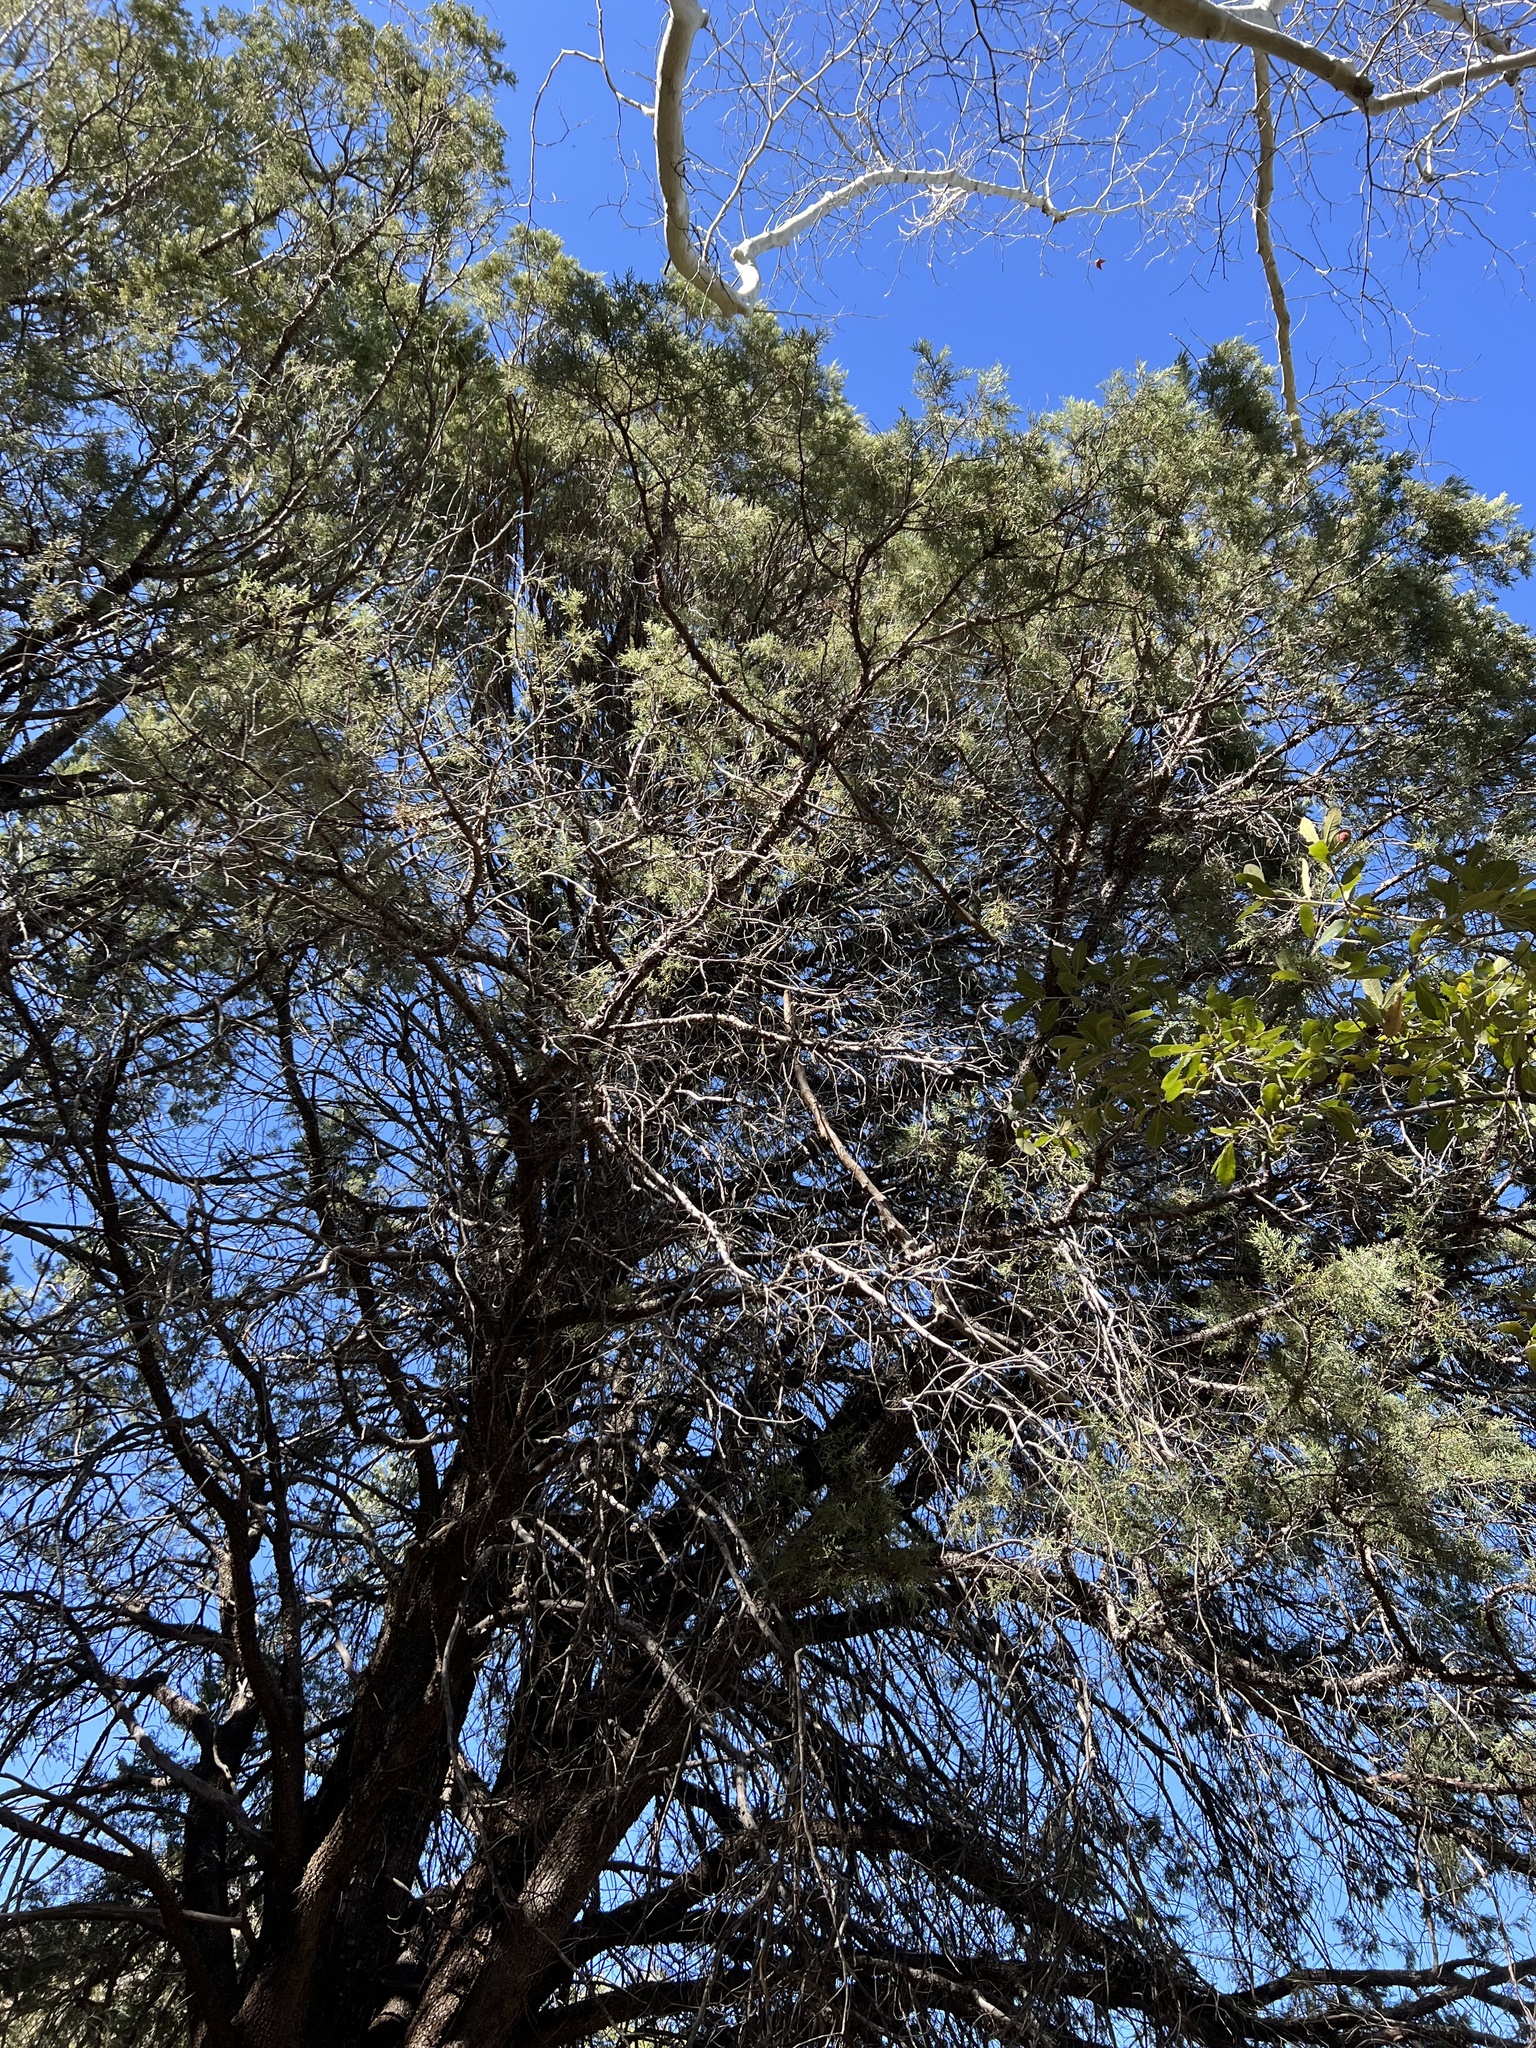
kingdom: Plantae
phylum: Tracheophyta
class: Pinopsida
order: Pinales
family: Cupressaceae
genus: Juniperus
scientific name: Juniperus deppeana
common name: Alligator juniper
